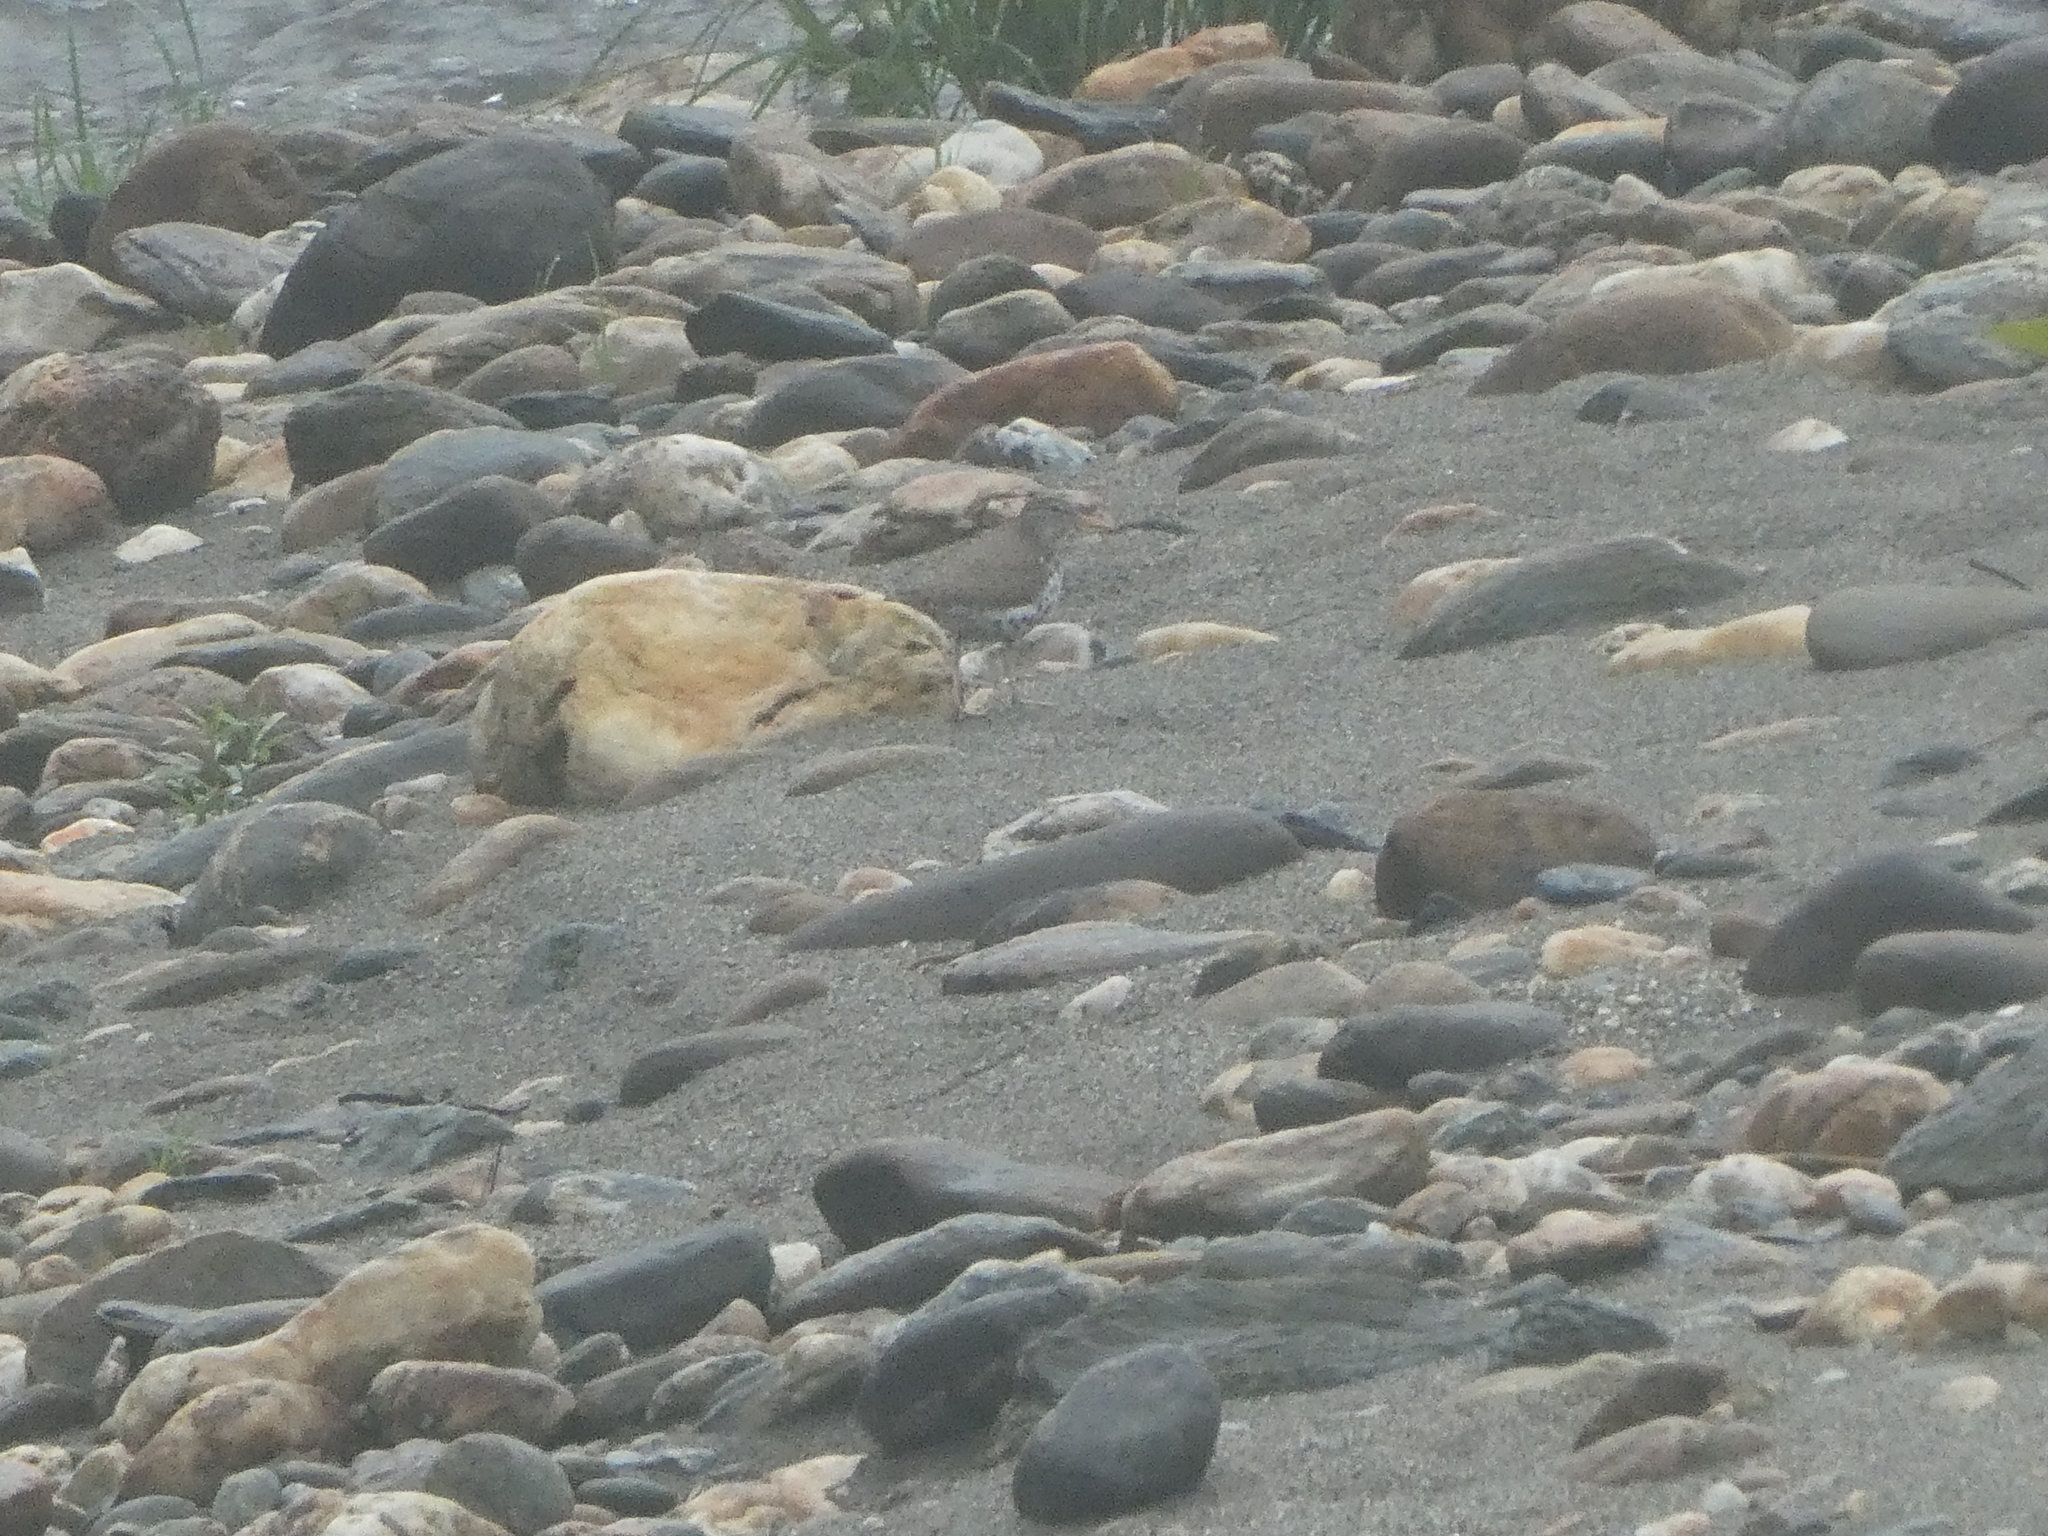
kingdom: Animalia
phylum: Chordata
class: Aves
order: Charadriiformes
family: Scolopacidae
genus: Actitis
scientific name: Actitis macularius
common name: Spotted sandpiper
